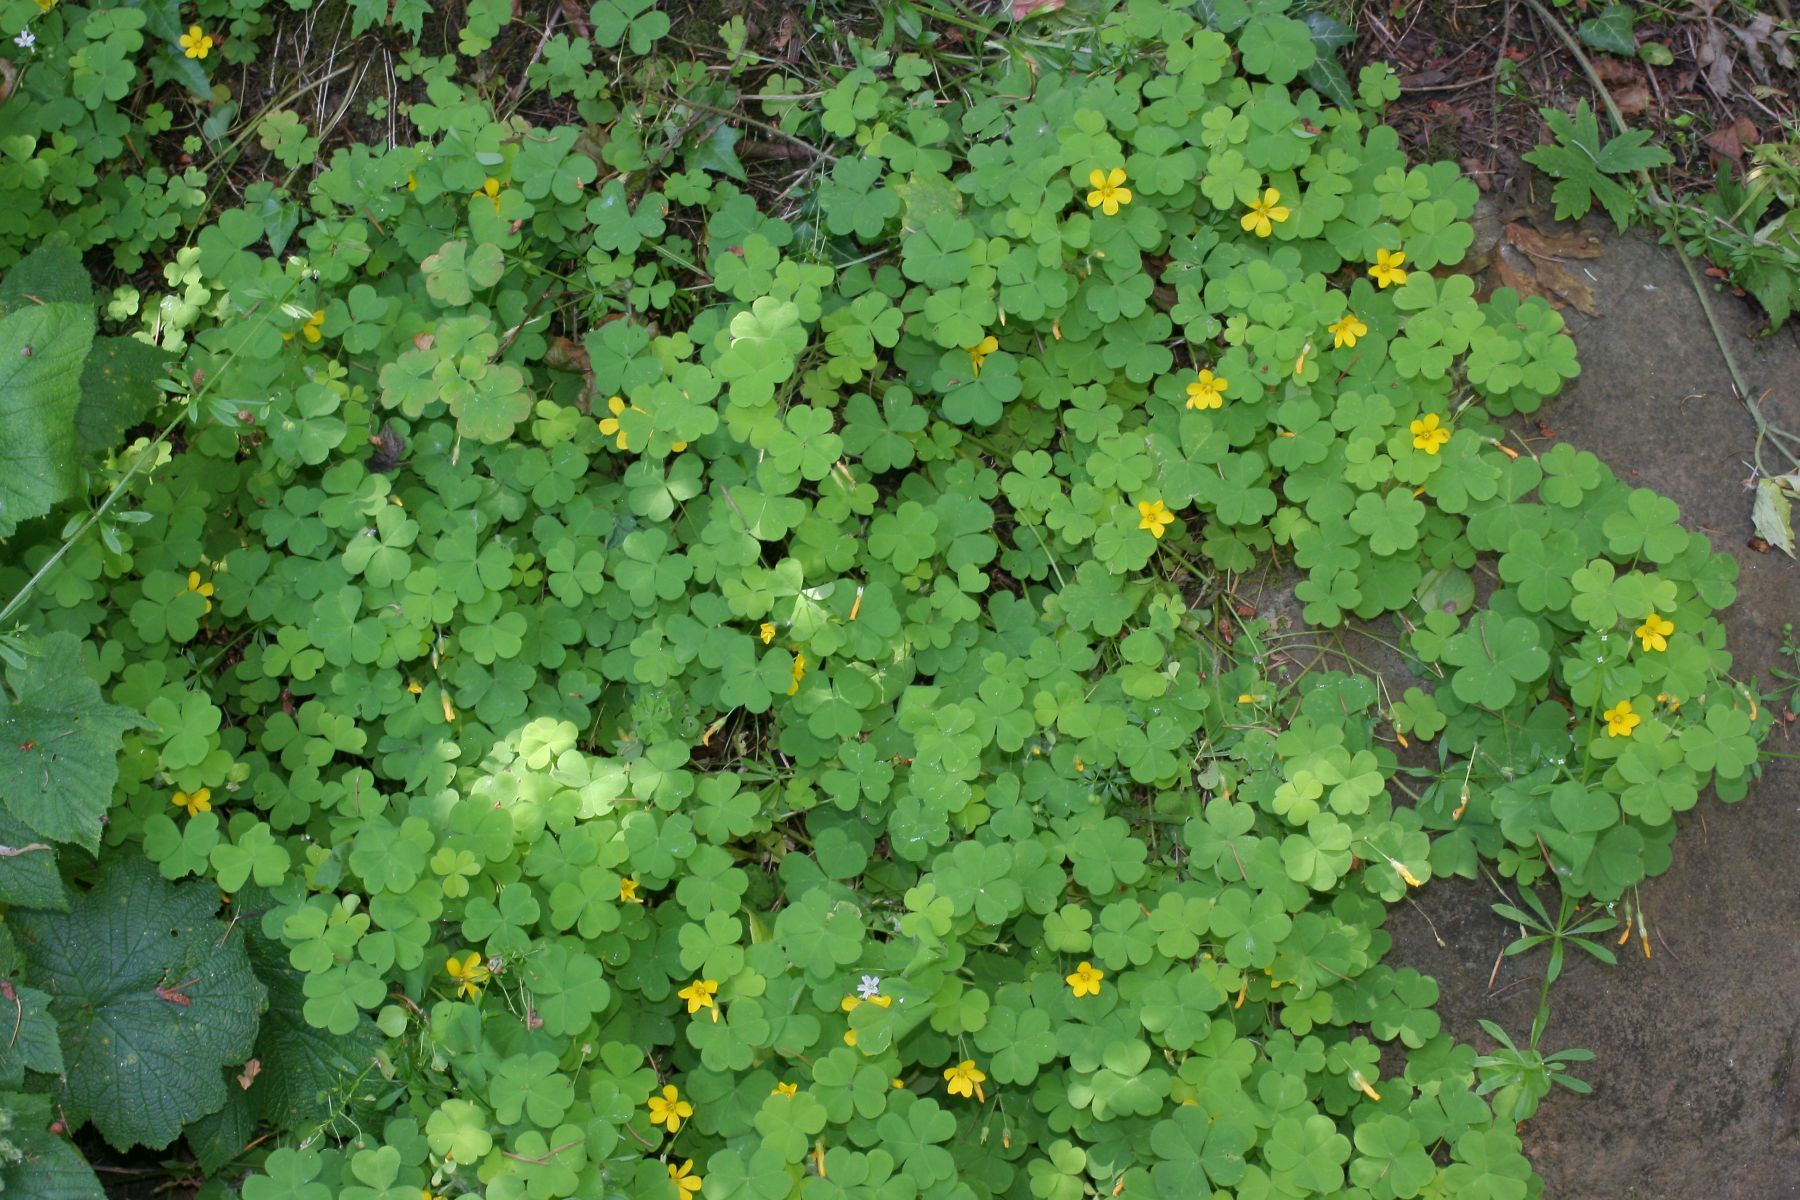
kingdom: Plantae
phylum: Tracheophyta
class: Magnoliopsida
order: Oxalidales
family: Oxalidaceae
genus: Oxalis
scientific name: Oxalis suksdorfii
